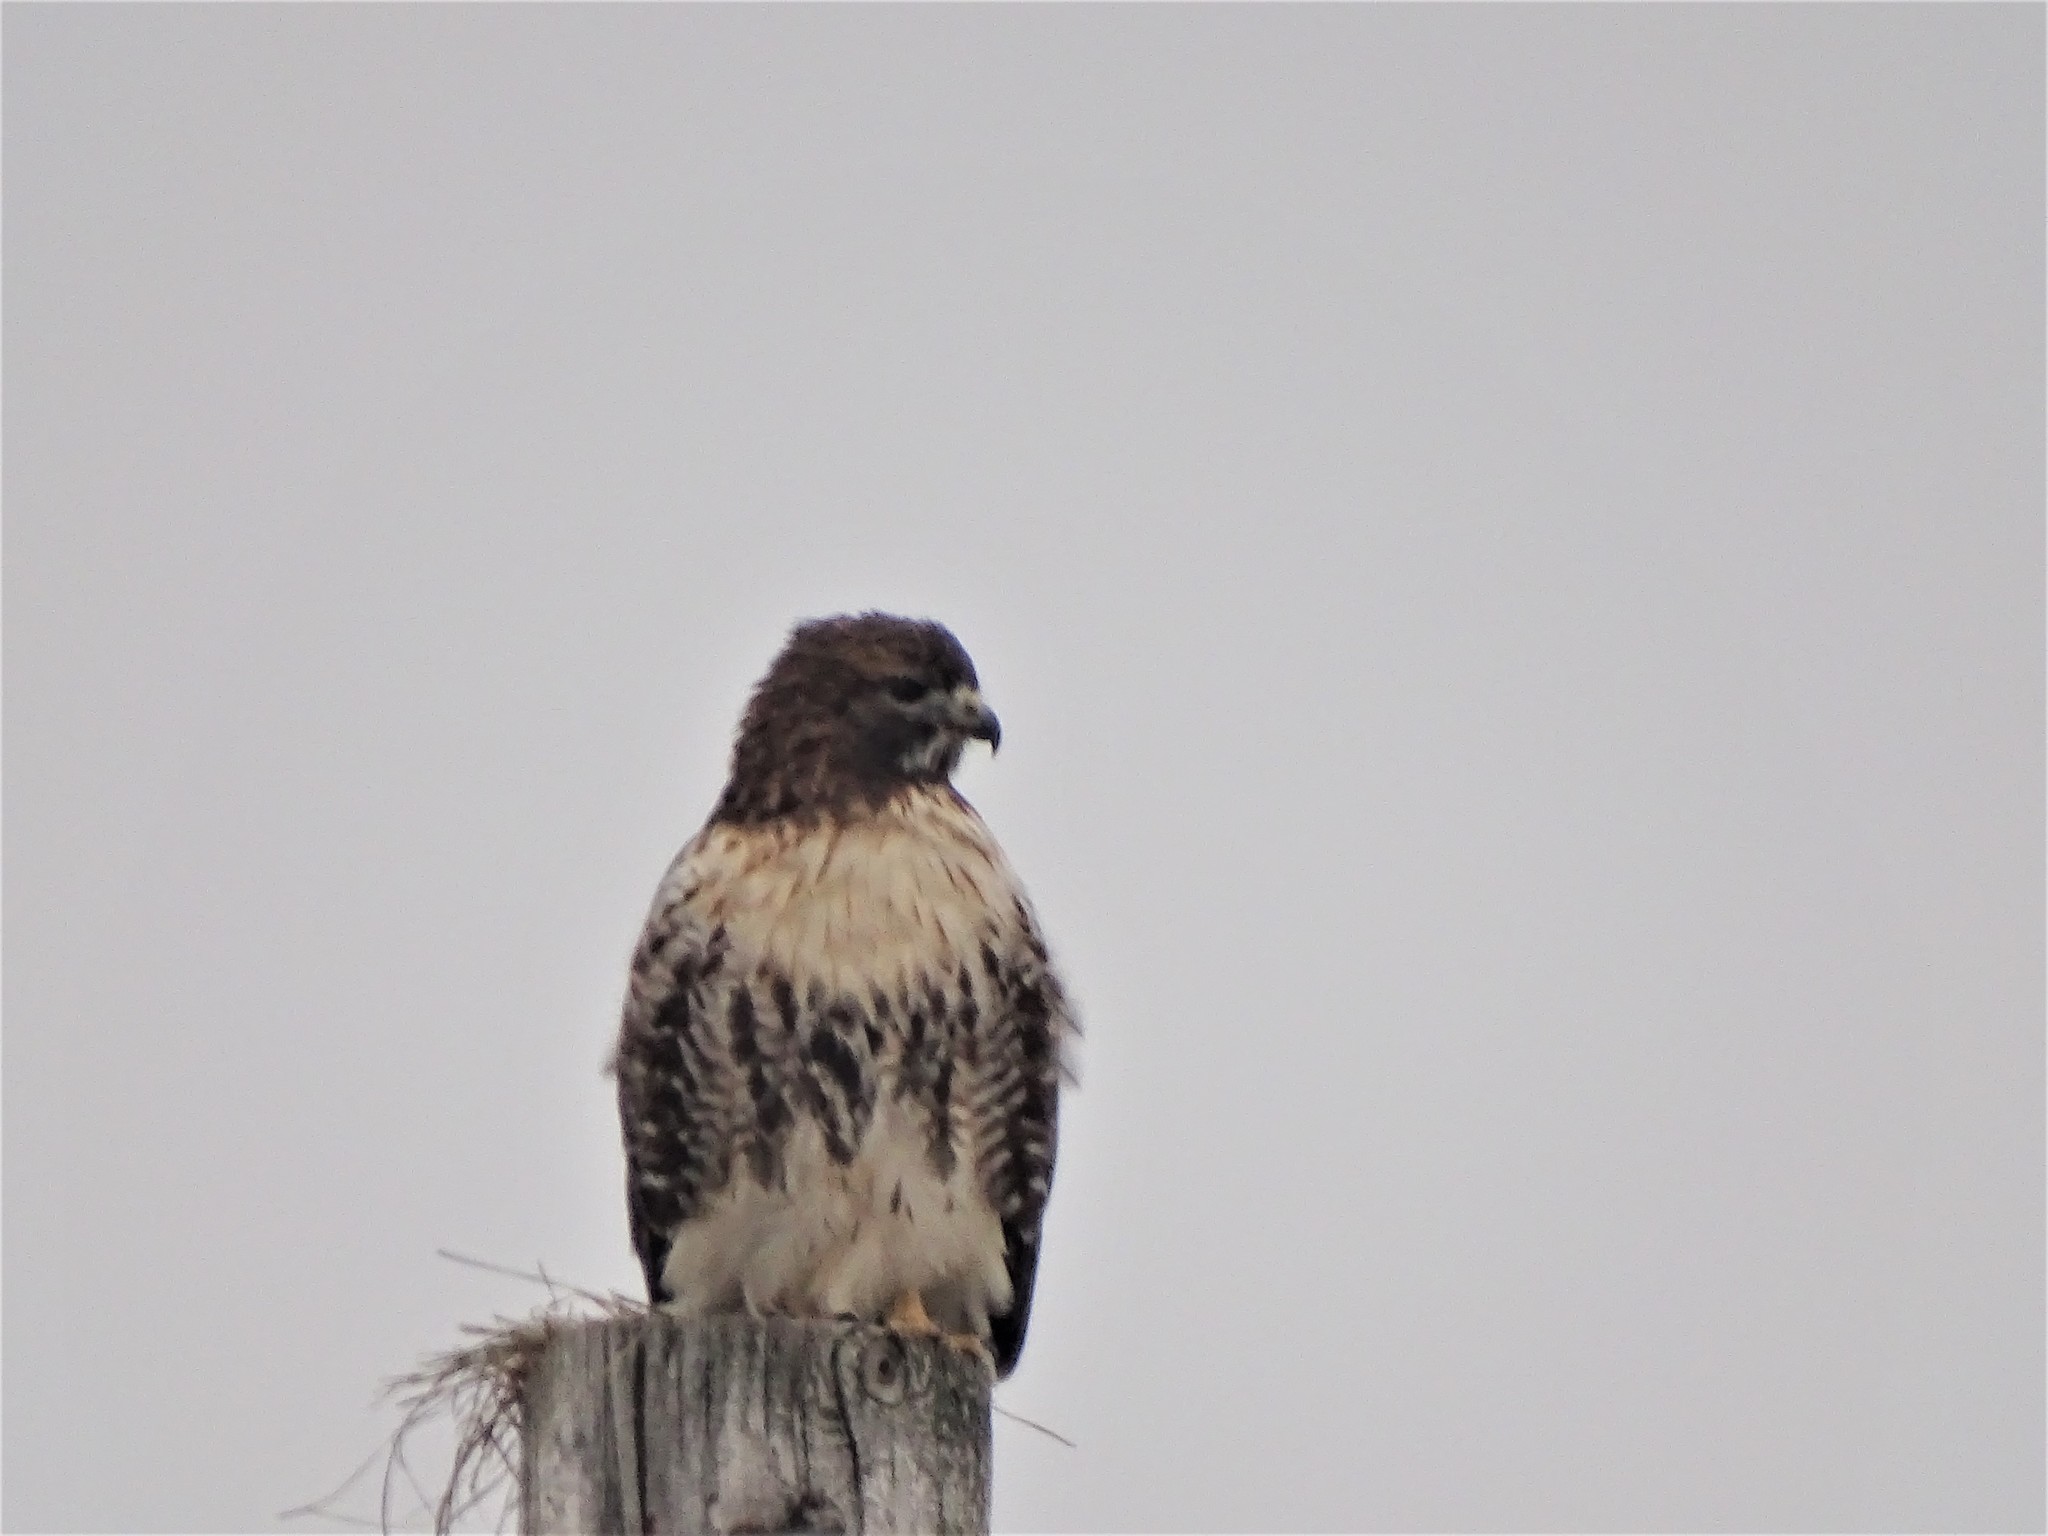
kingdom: Animalia
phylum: Chordata
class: Aves
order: Accipitriformes
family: Accipitridae
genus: Buteo
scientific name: Buteo jamaicensis
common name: Red-tailed hawk
